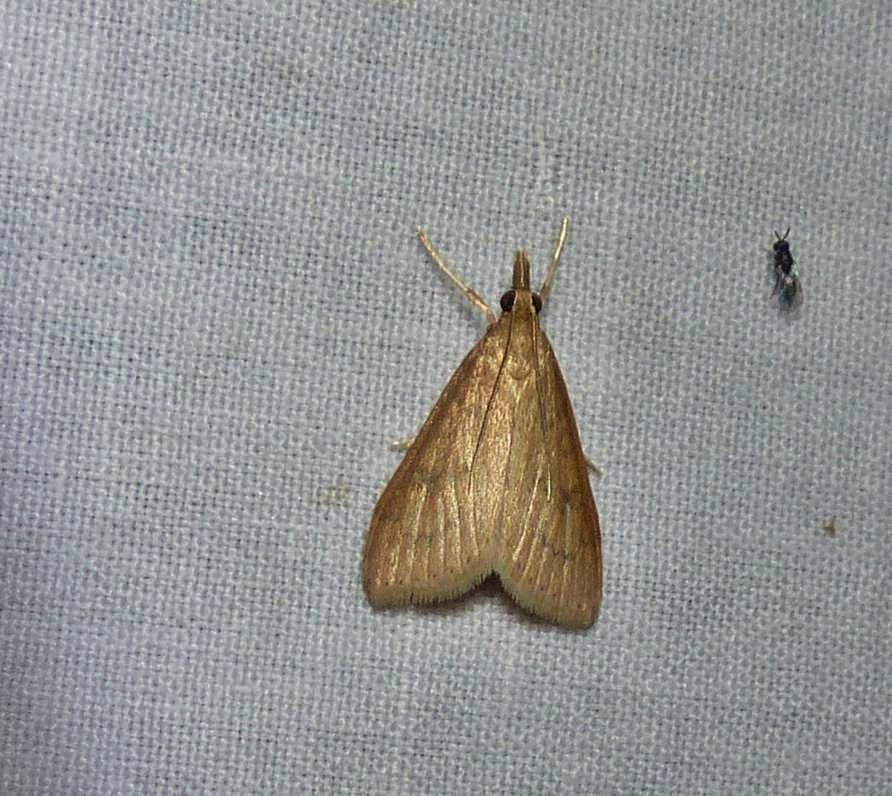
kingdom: Animalia
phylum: Arthropoda
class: Insecta
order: Lepidoptera
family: Crambidae
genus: Udea
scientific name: Udea rubigalis
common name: Celery leaftier moth
